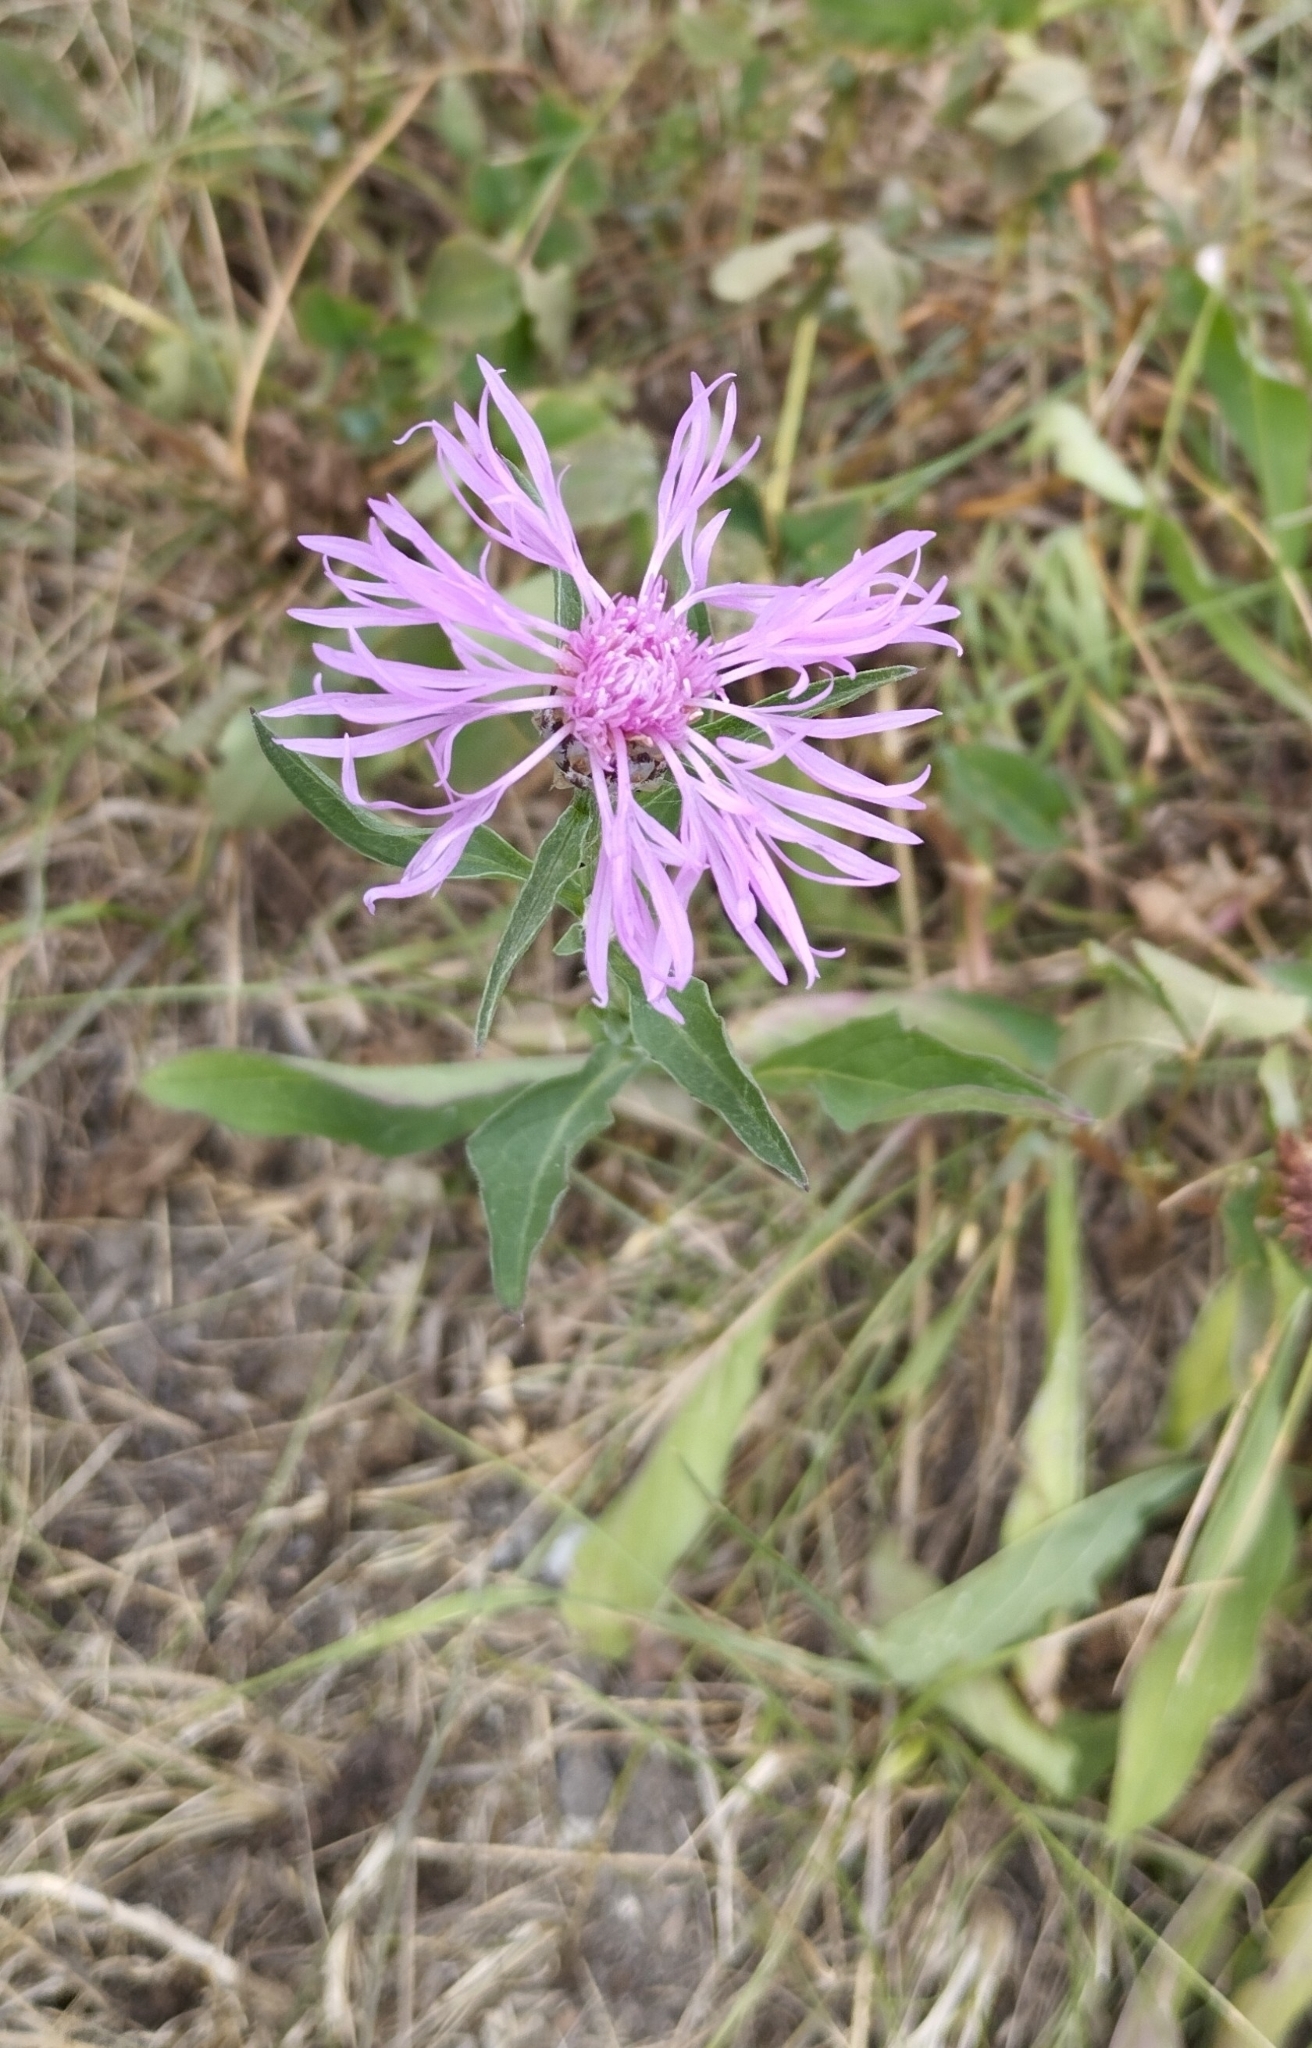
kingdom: Plantae
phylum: Tracheophyta
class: Magnoliopsida
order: Asterales
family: Asteraceae
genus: Centaurea
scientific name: Centaurea jacea
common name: Brown knapweed
